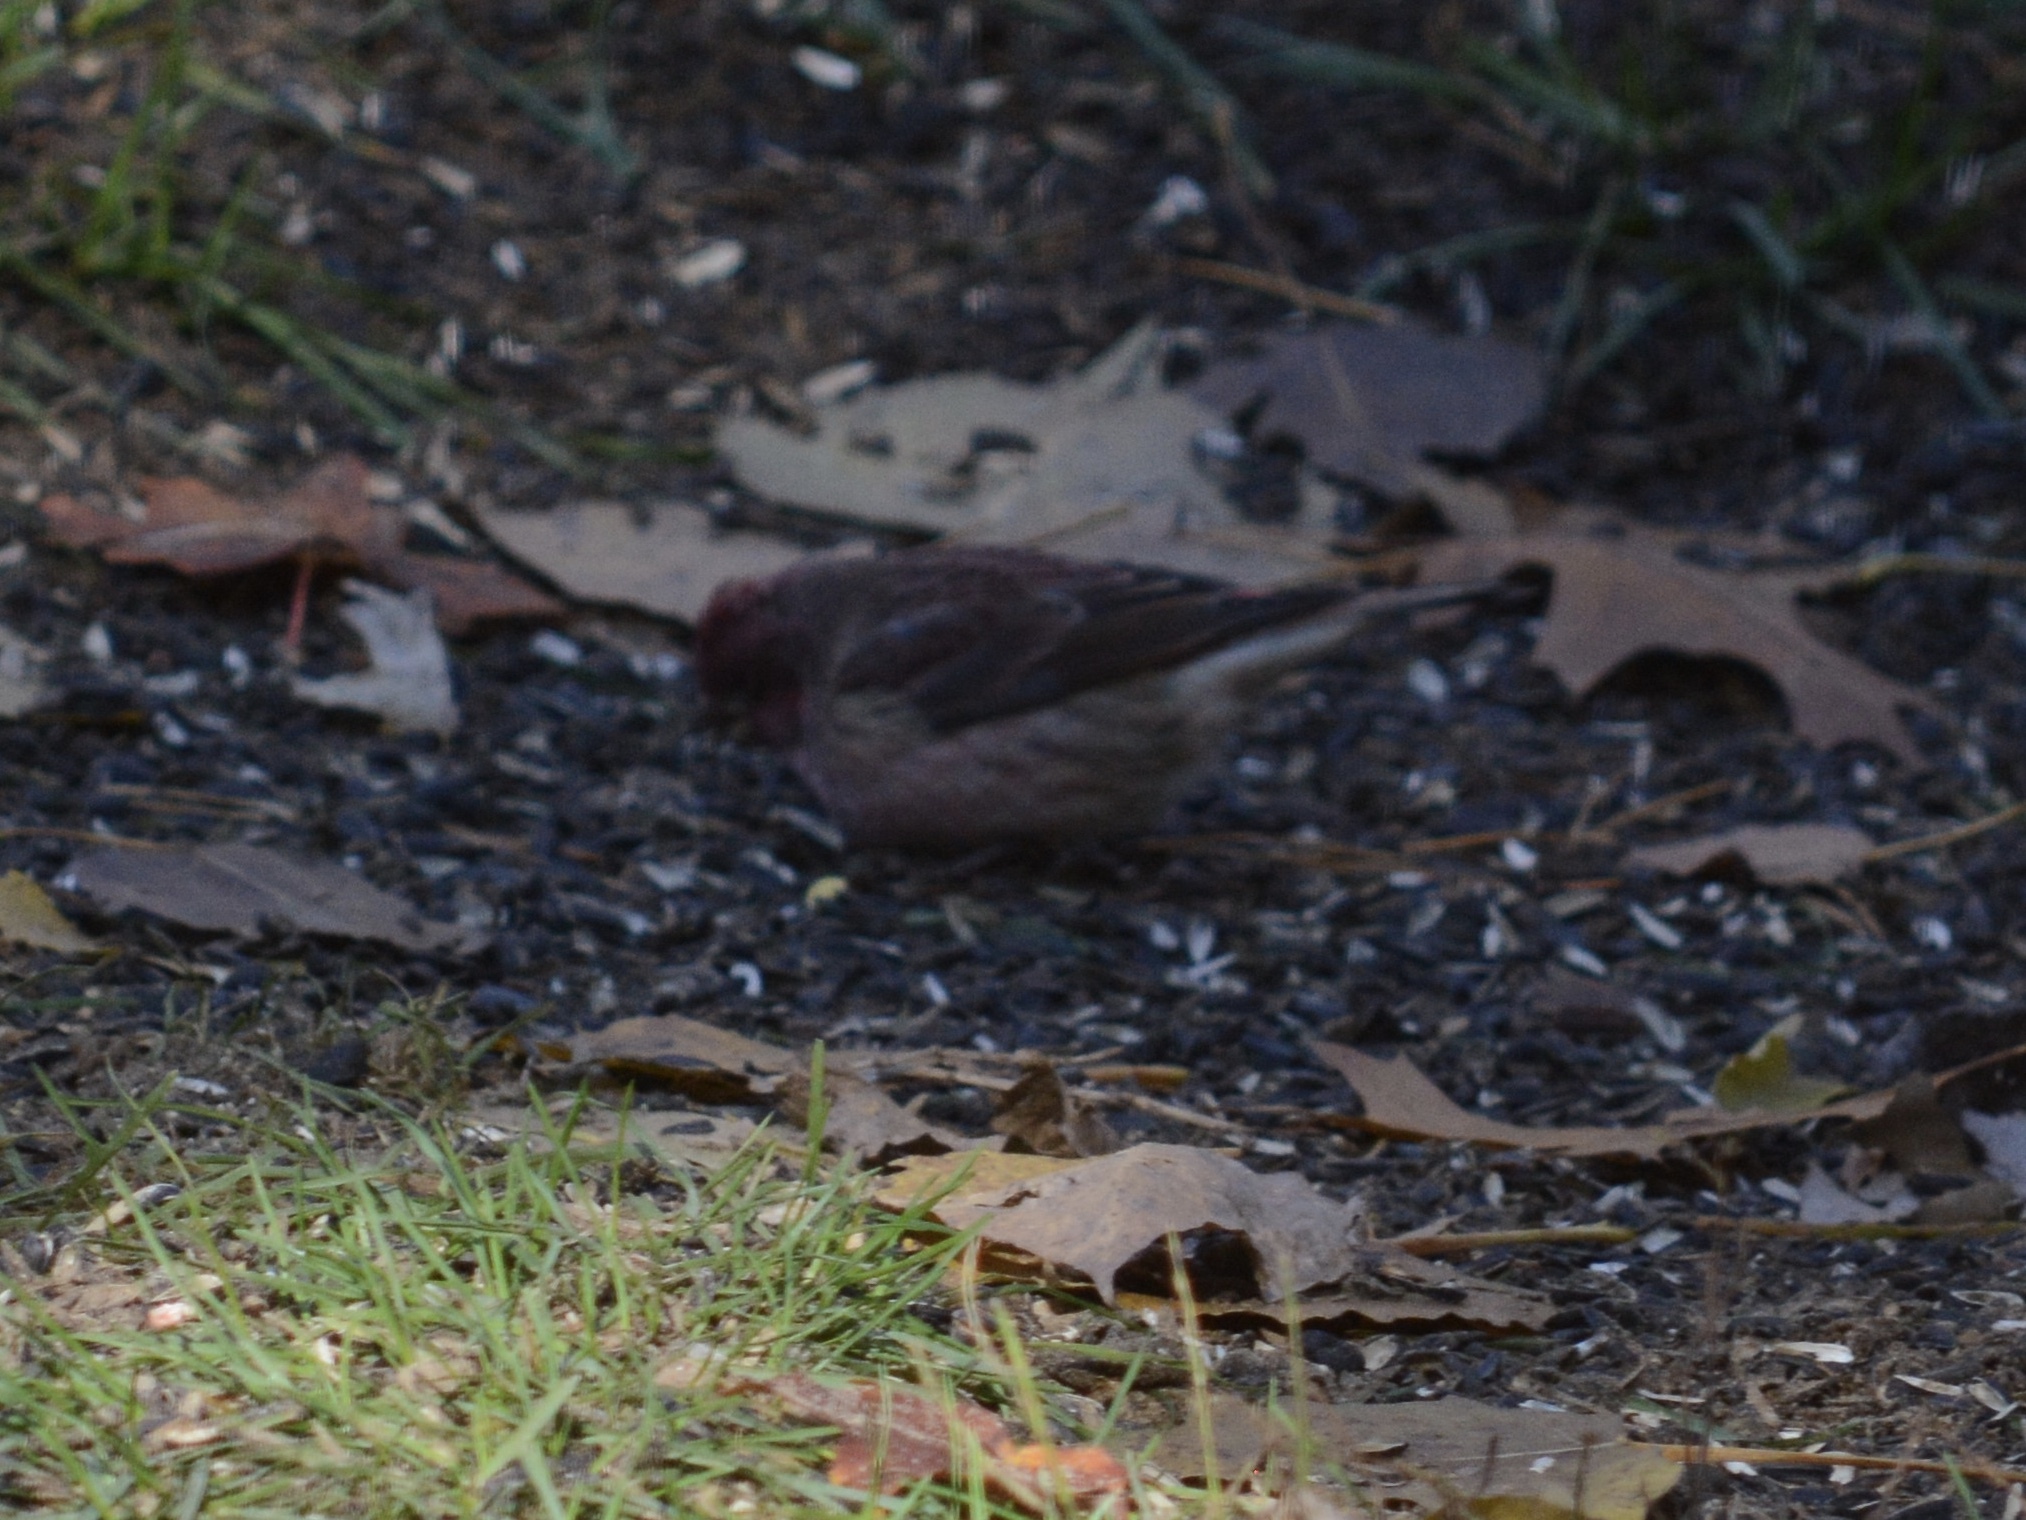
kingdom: Animalia
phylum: Chordata
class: Aves
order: Passeriformes
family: Fringillidae
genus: Haemorhous
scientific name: Haemorhous purpureus
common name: Purple finch
